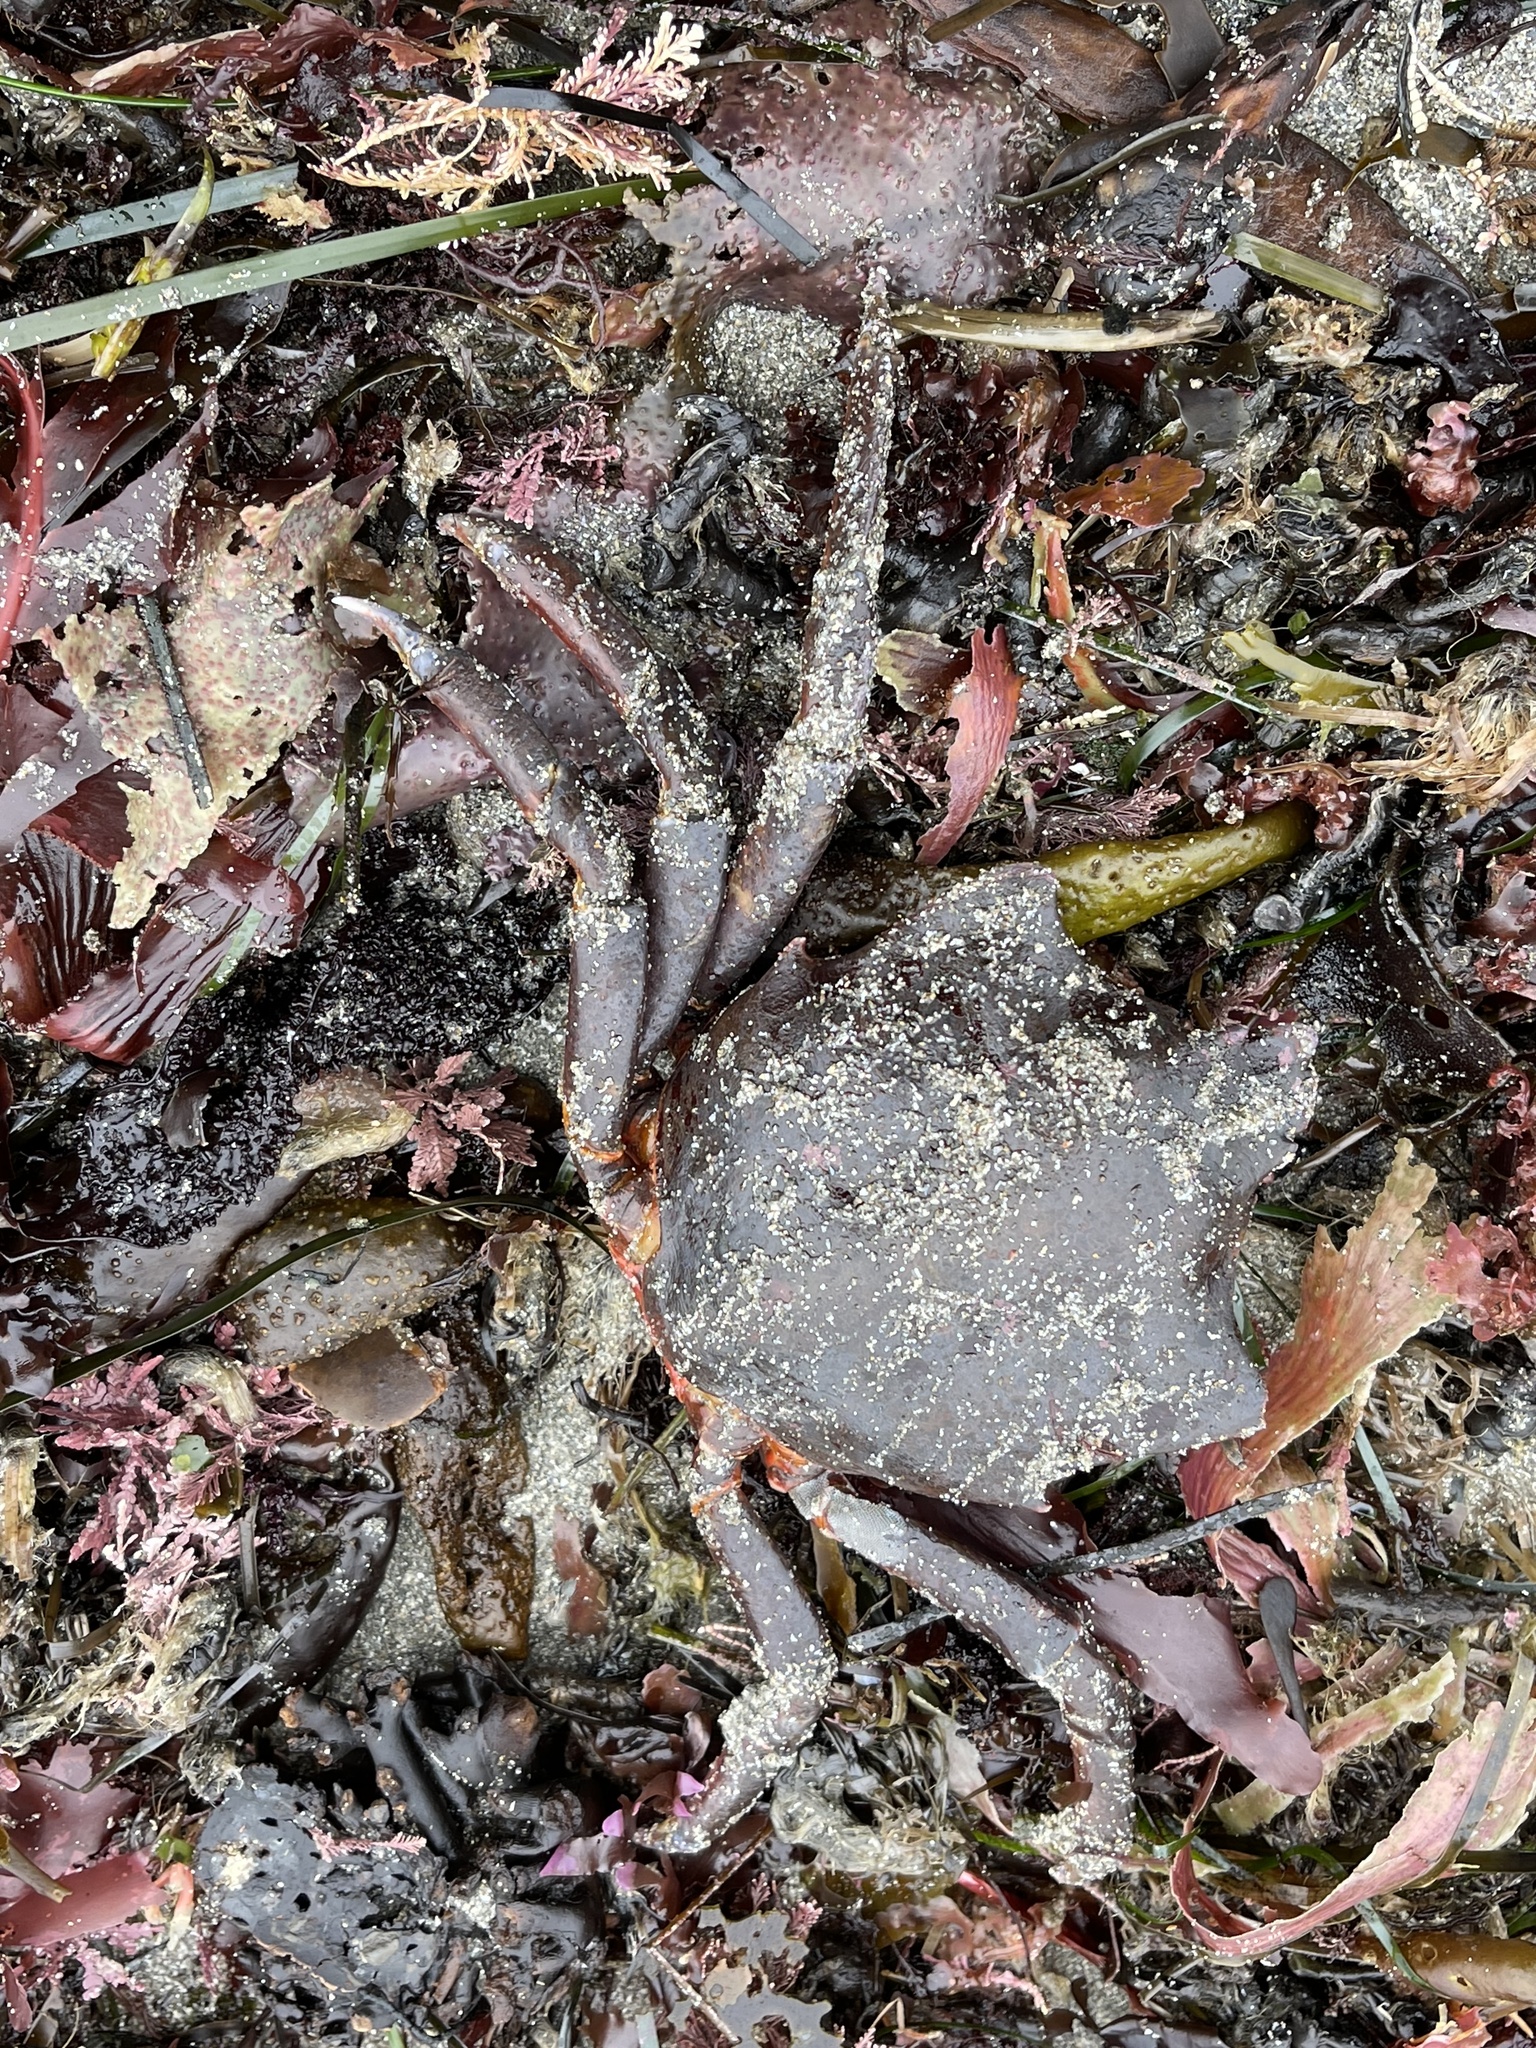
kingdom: Animalia
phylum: Arthropoda
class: Malacostraca
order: Decapoda
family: Epialtidae
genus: Pugettia
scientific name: Pugettia producta
